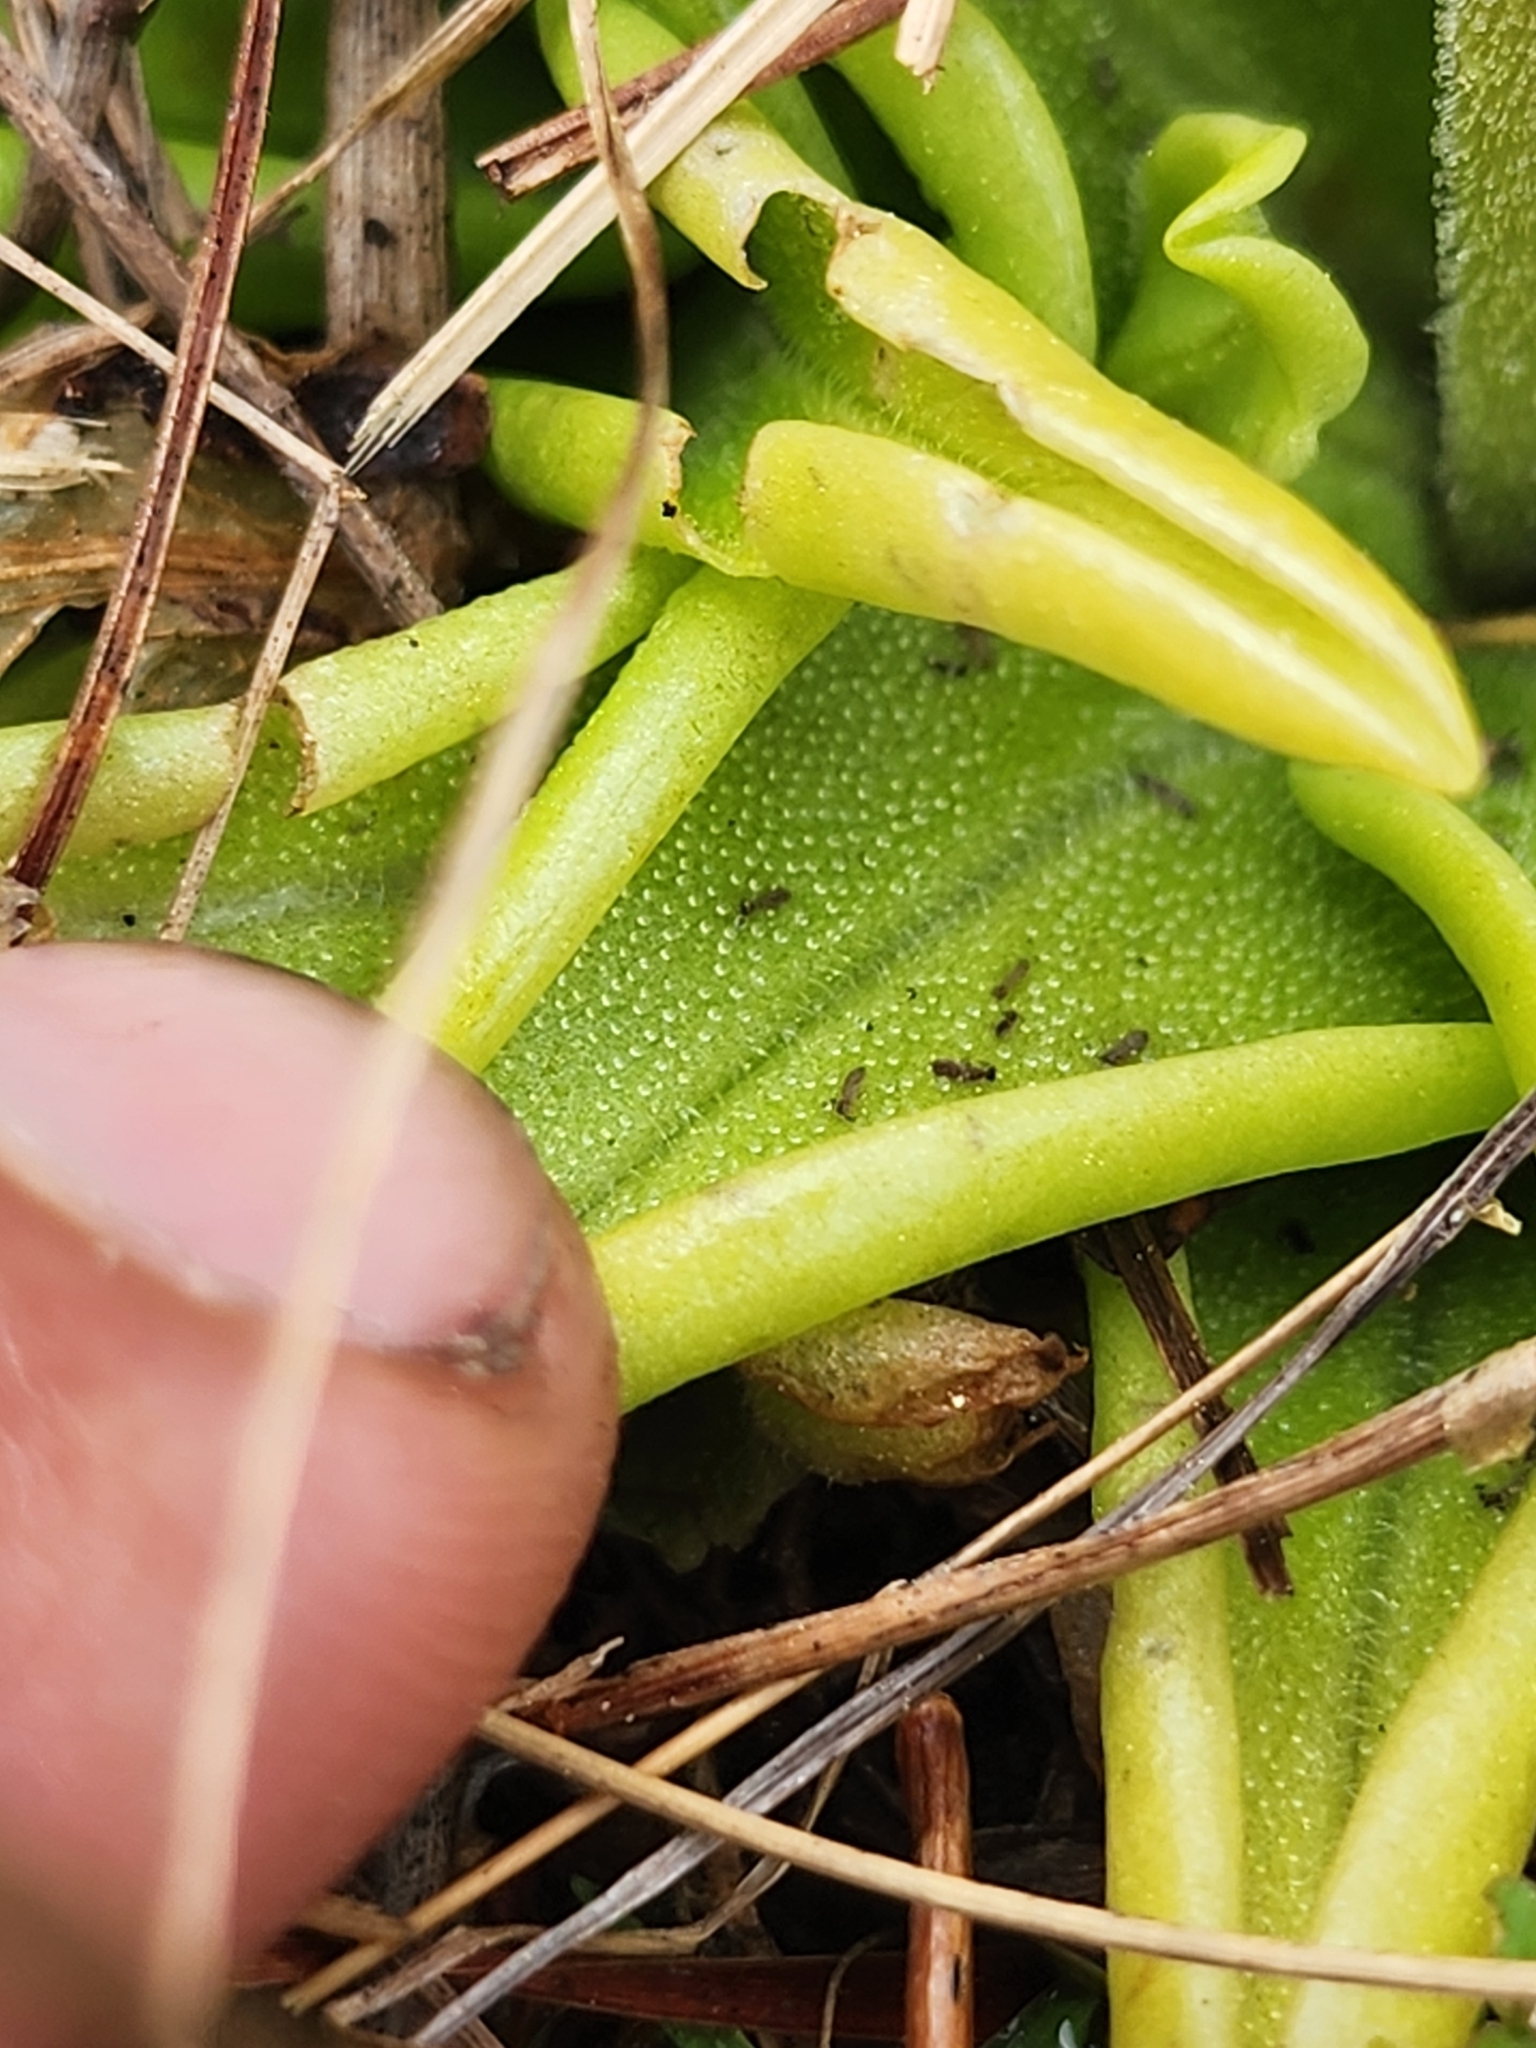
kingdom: Plantae
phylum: Tracheophyta
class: Magnoliopsida
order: Lamiales
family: Lentibulariaceae
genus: Pinguicula
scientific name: Pinguicula lutea
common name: Yellow butterwort
